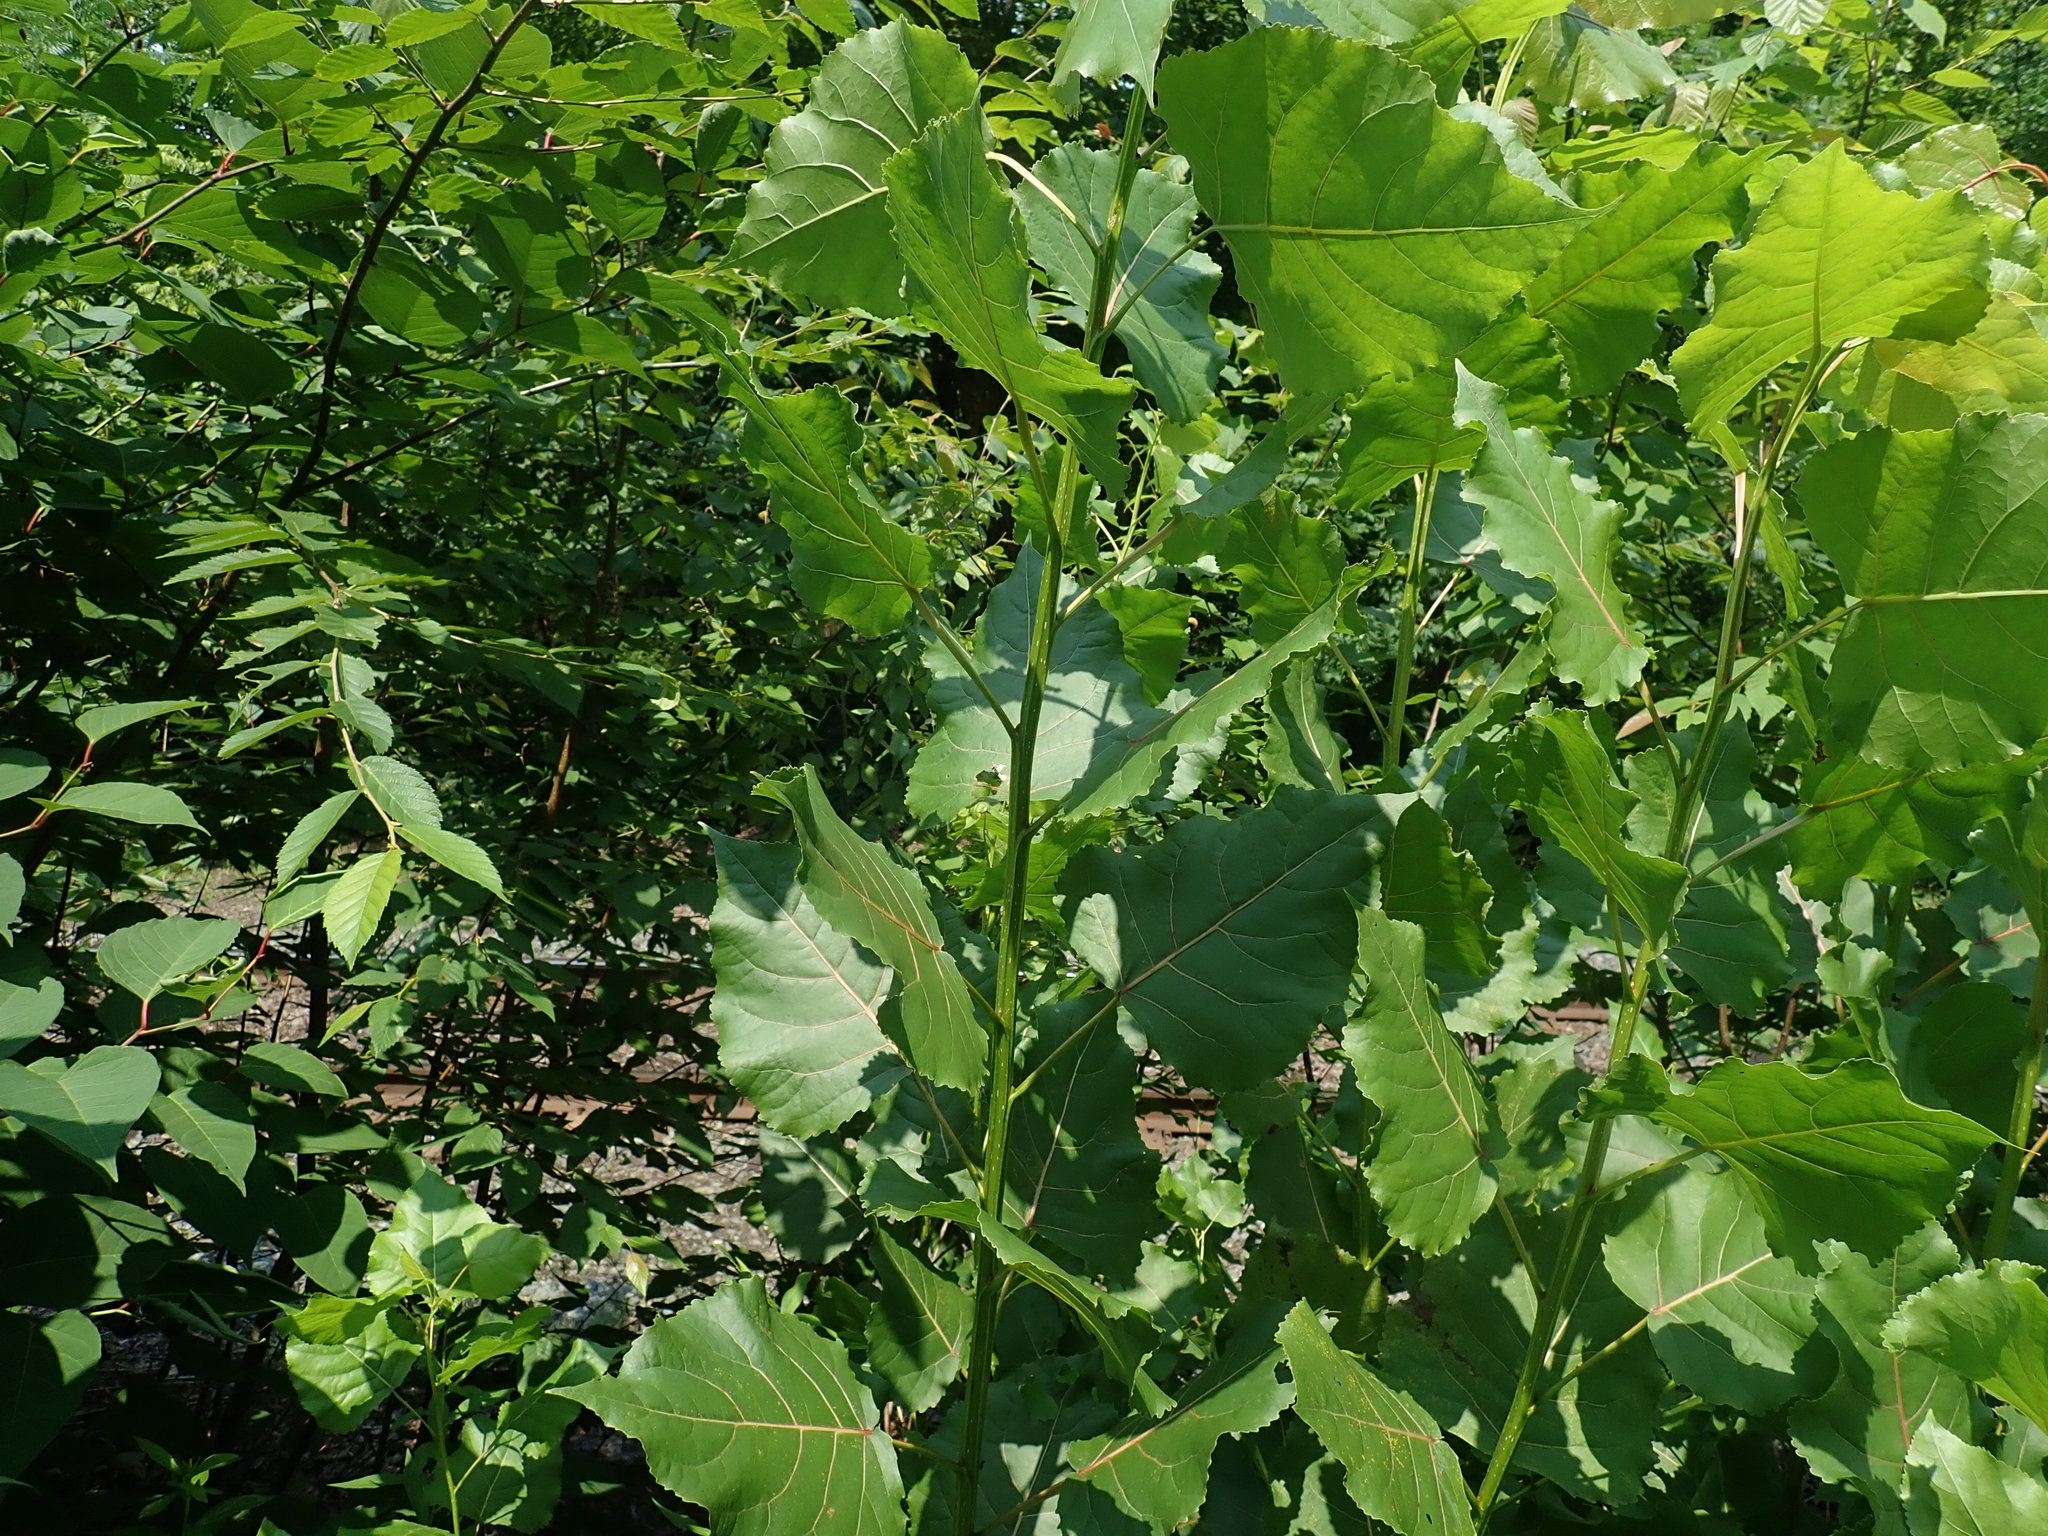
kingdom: Plantae
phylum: Tracheophyta
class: Magnoliopsida
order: Malpighiales
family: Salicaceae
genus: Populus
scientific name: Populus deltoides
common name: Eastern cottonwood
